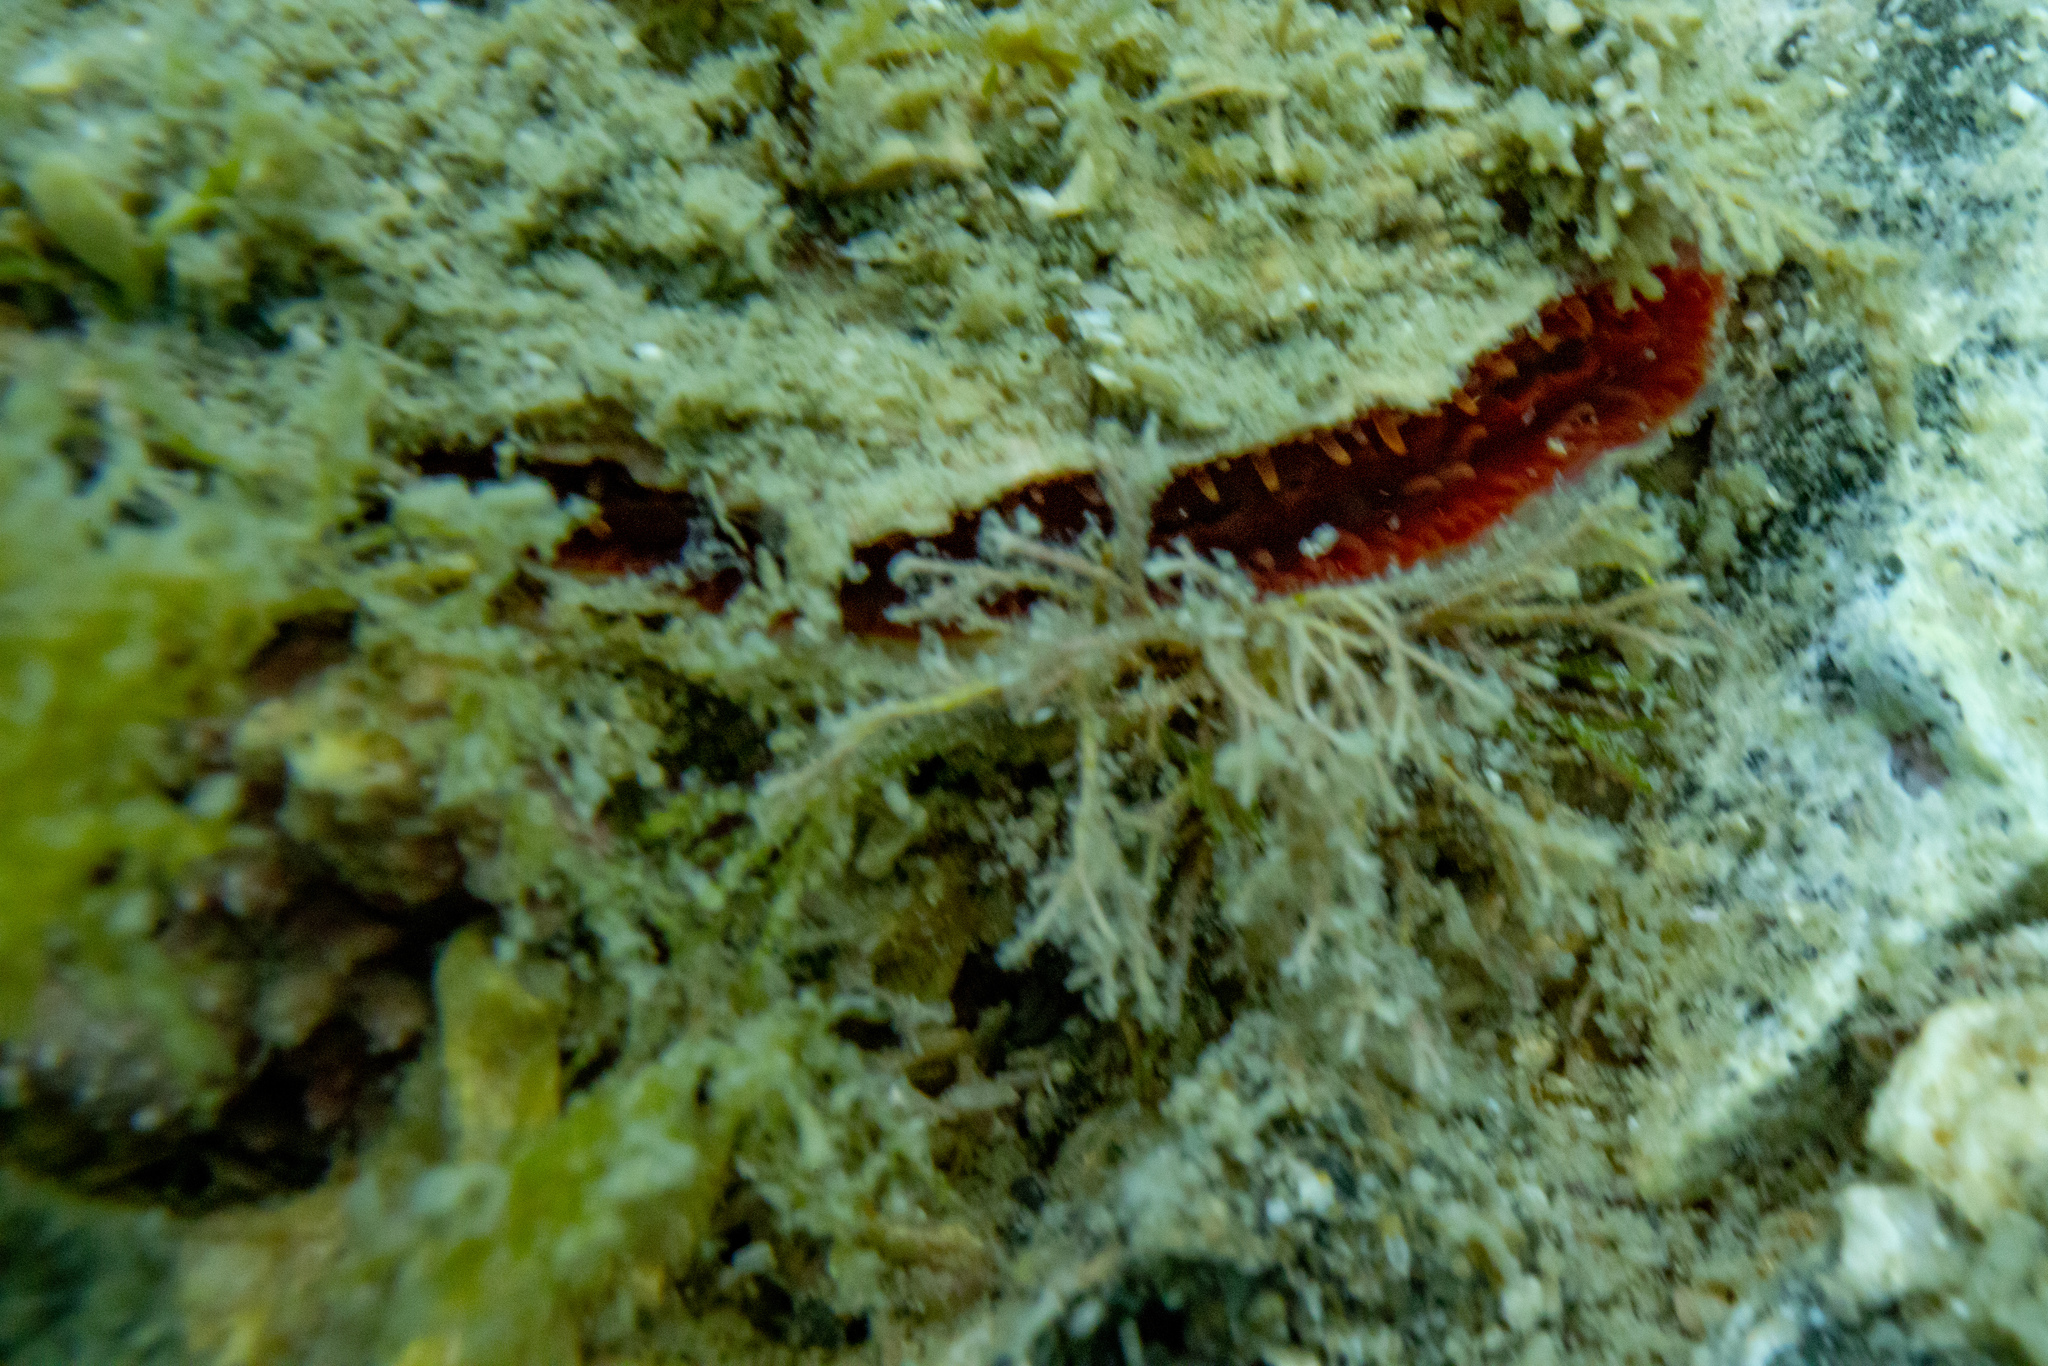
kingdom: Animalia
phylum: Mollusca
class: Bivalvia
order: Pectinida
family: Anomiidae
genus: Monia
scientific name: Monia zelandica
